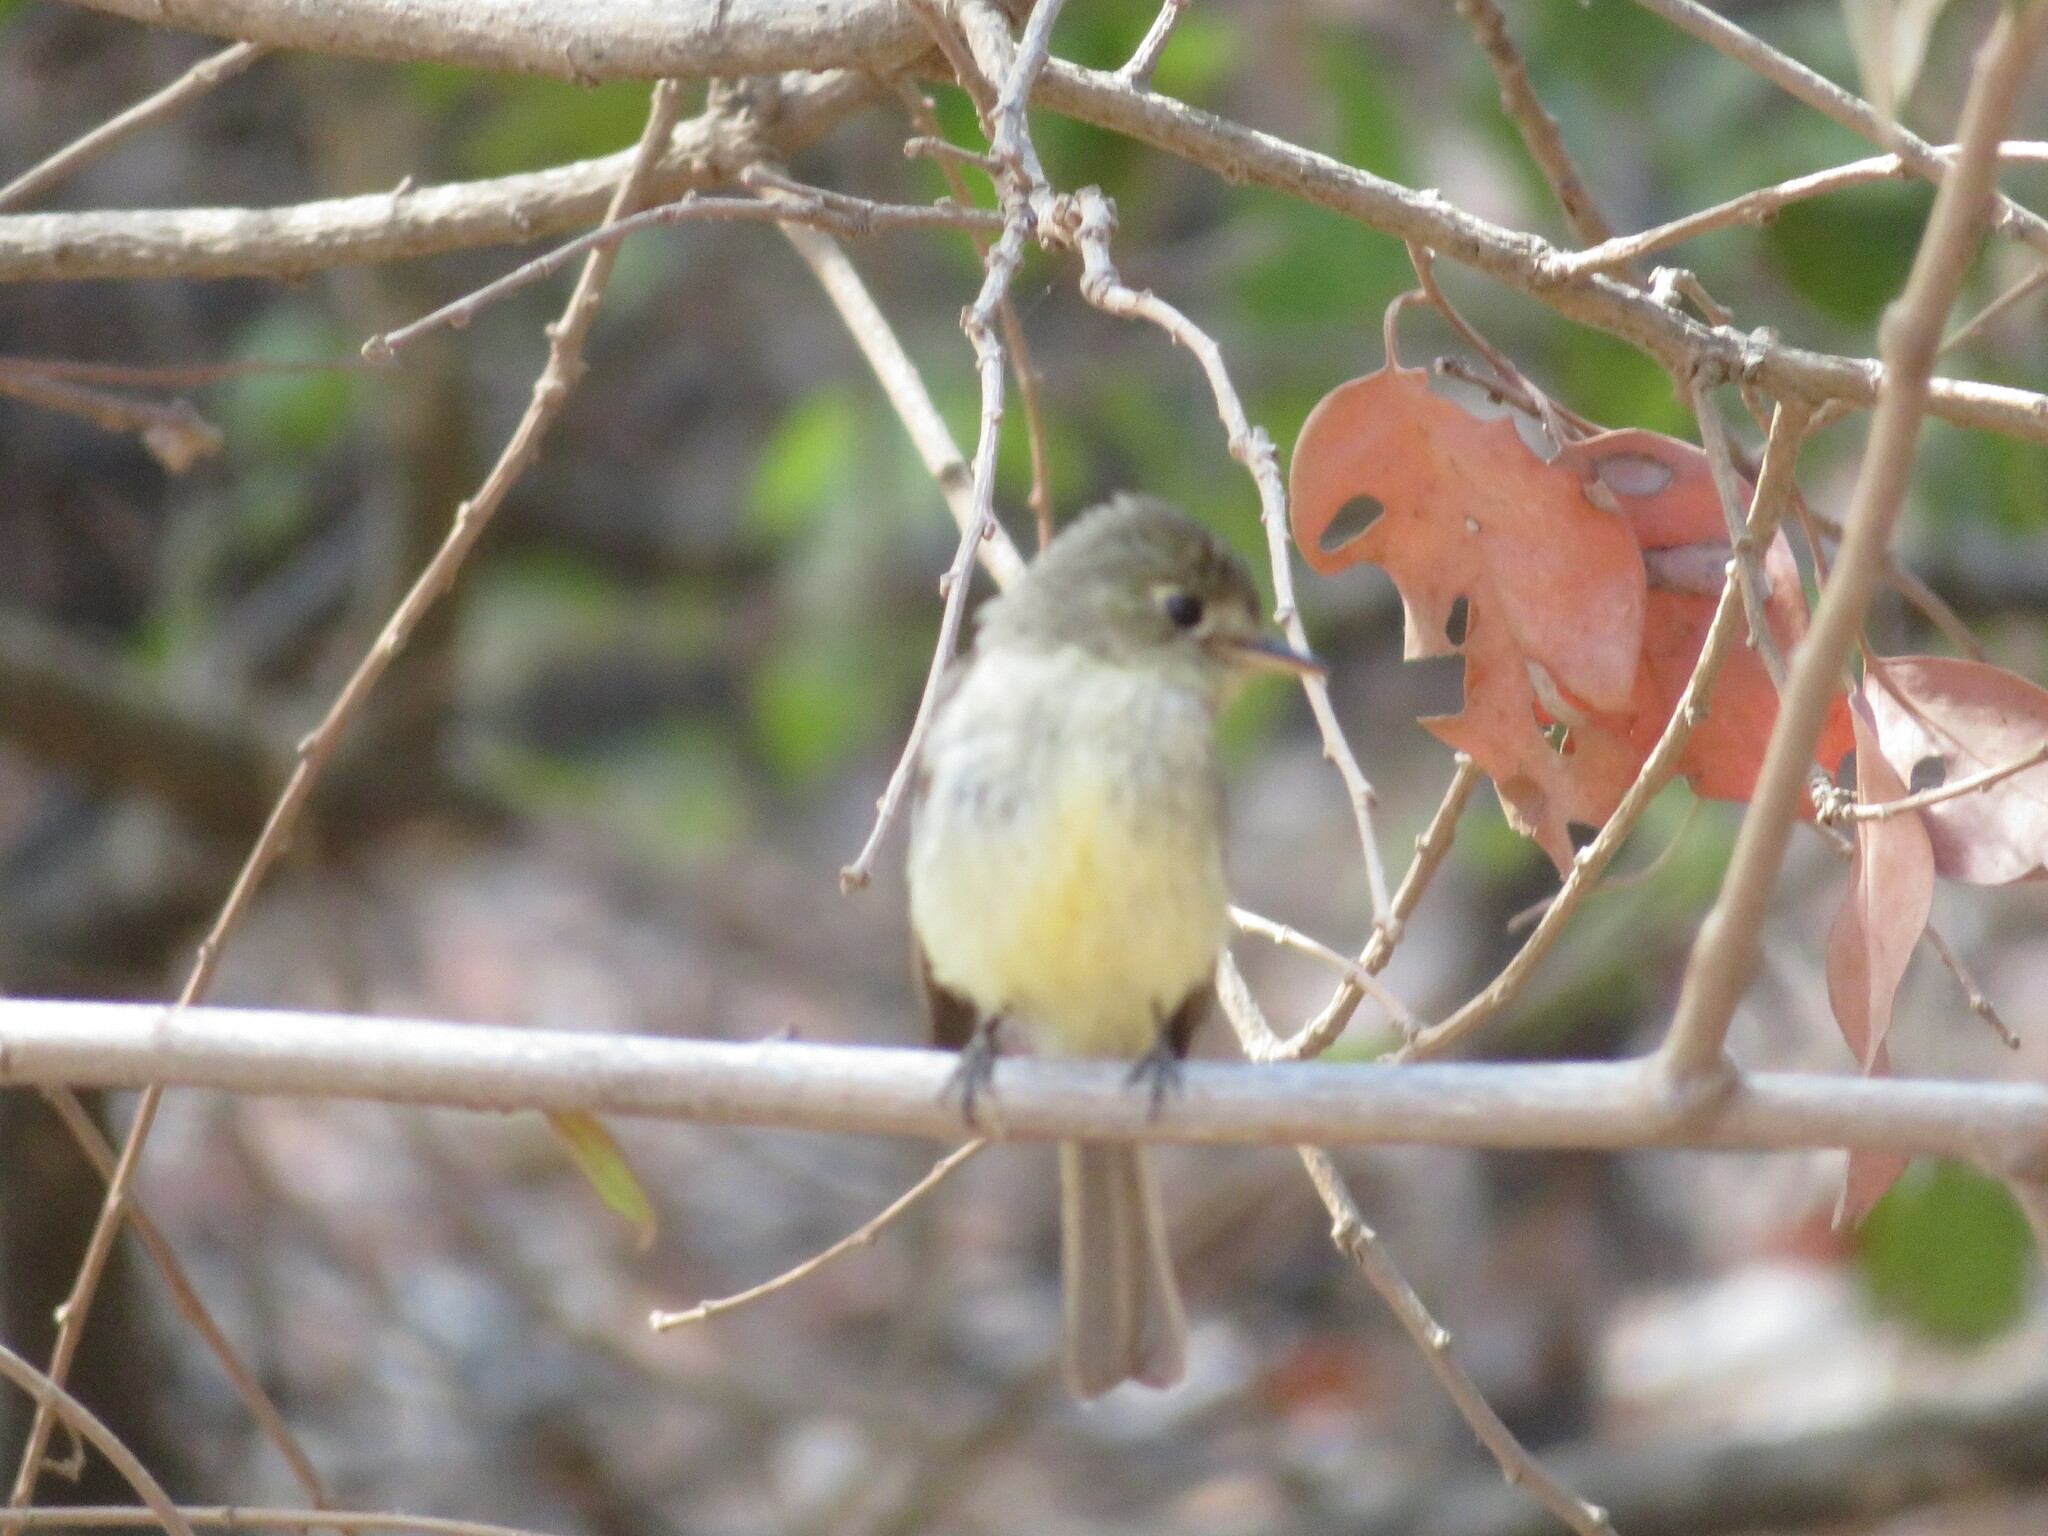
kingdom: Animalia
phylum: Chordata
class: Aves
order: Passeriformes
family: Tyrannidae
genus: Empidonax
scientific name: Empidonax difficilis
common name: Pacific-slope flycatcher
